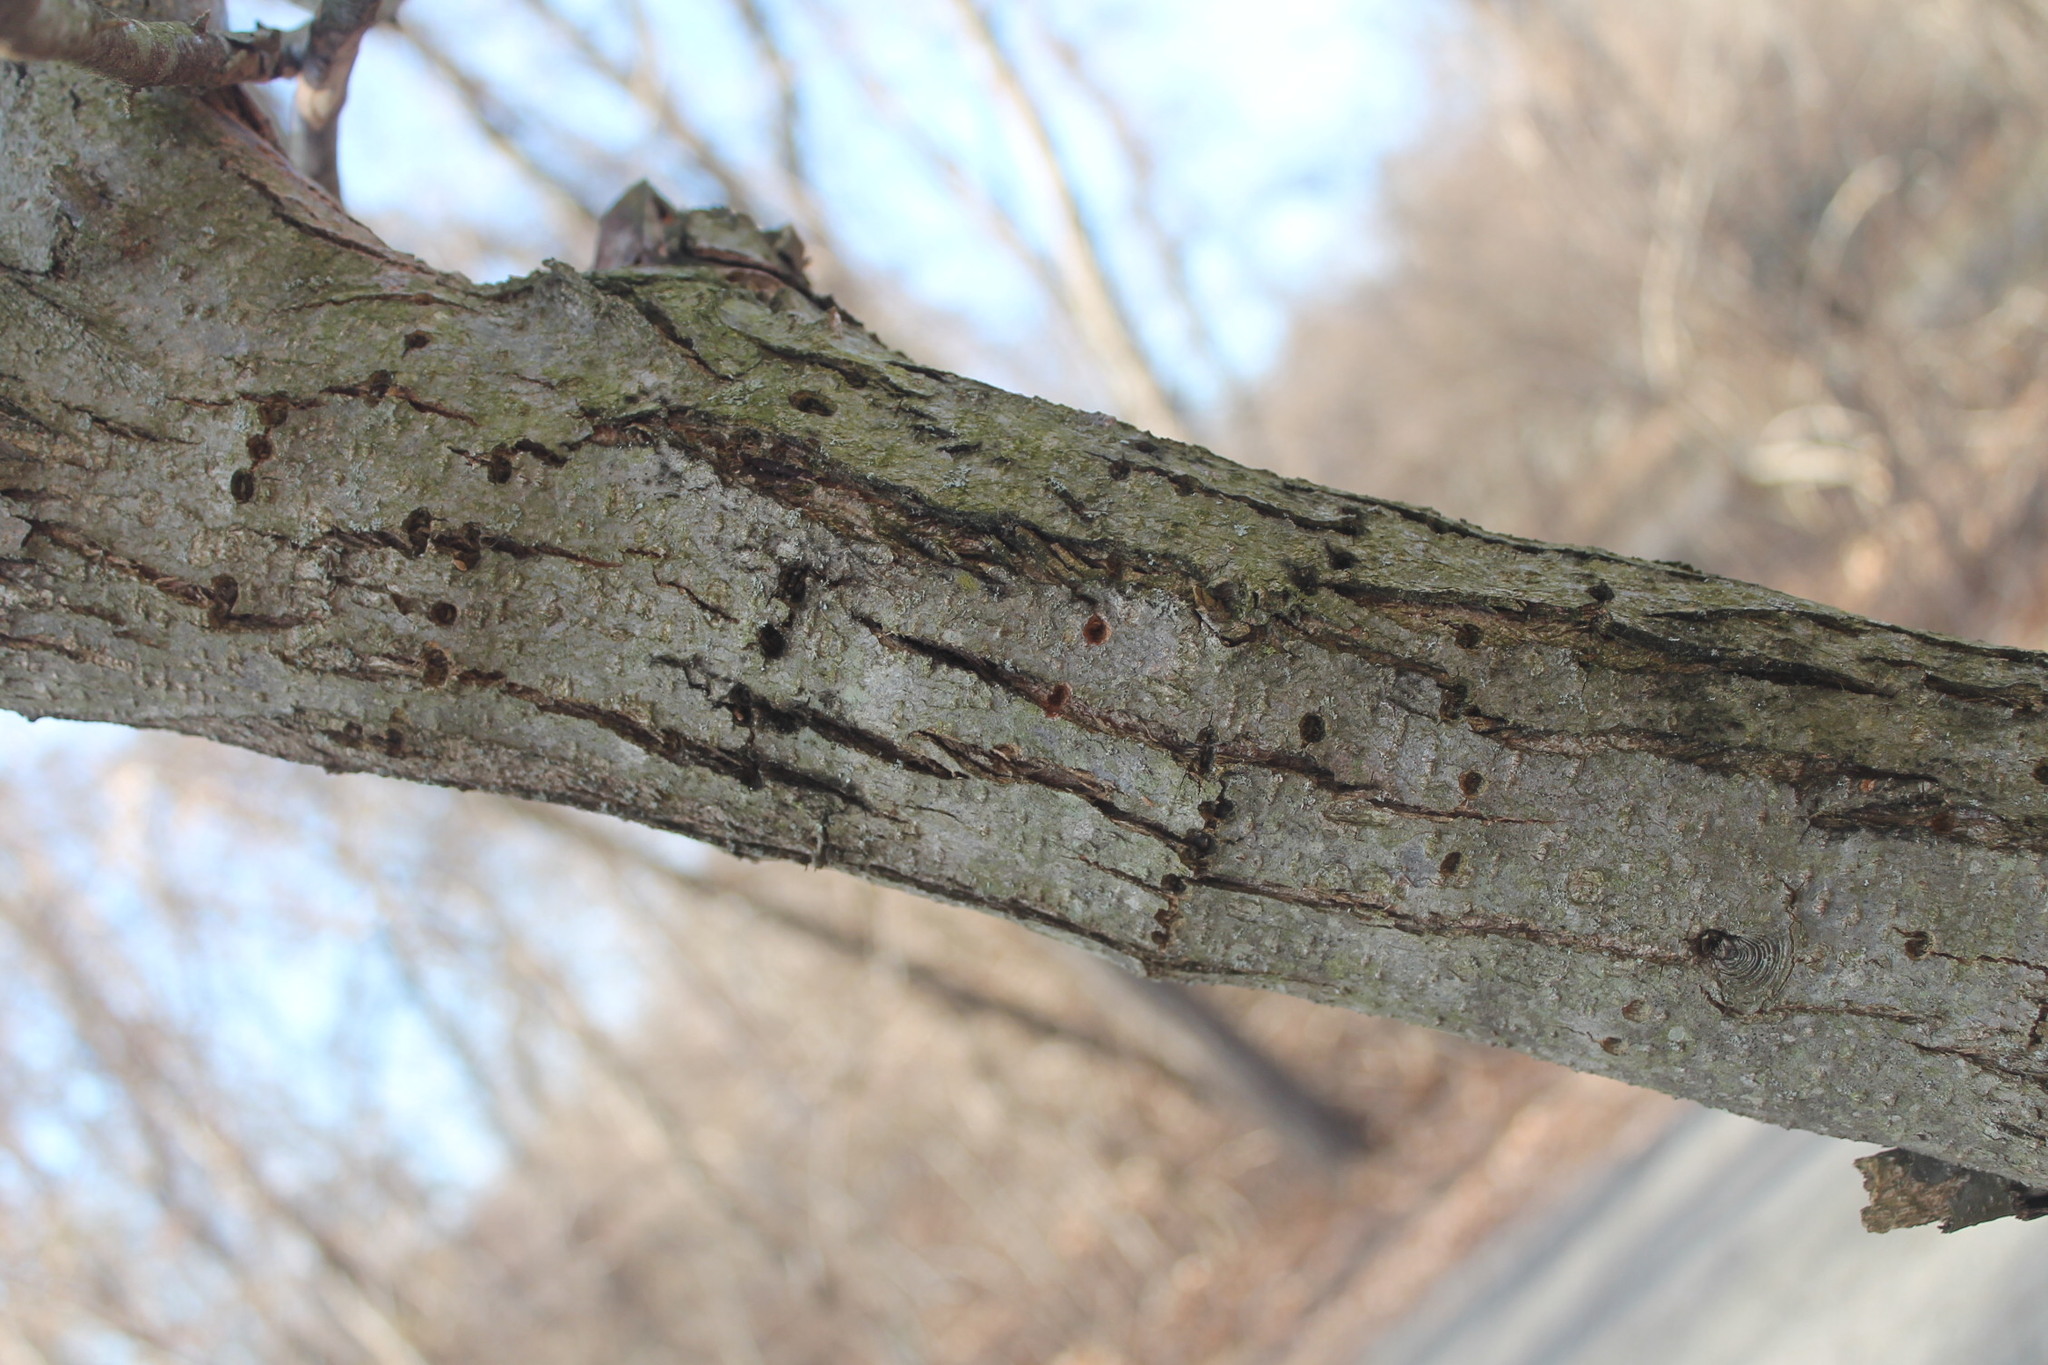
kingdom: Animalia
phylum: Chordata
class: Aves
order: Piciformes
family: Picidae
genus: Sphyrapicus
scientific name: Sphyrapicus varius
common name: Yellow-bellied sapsucker
